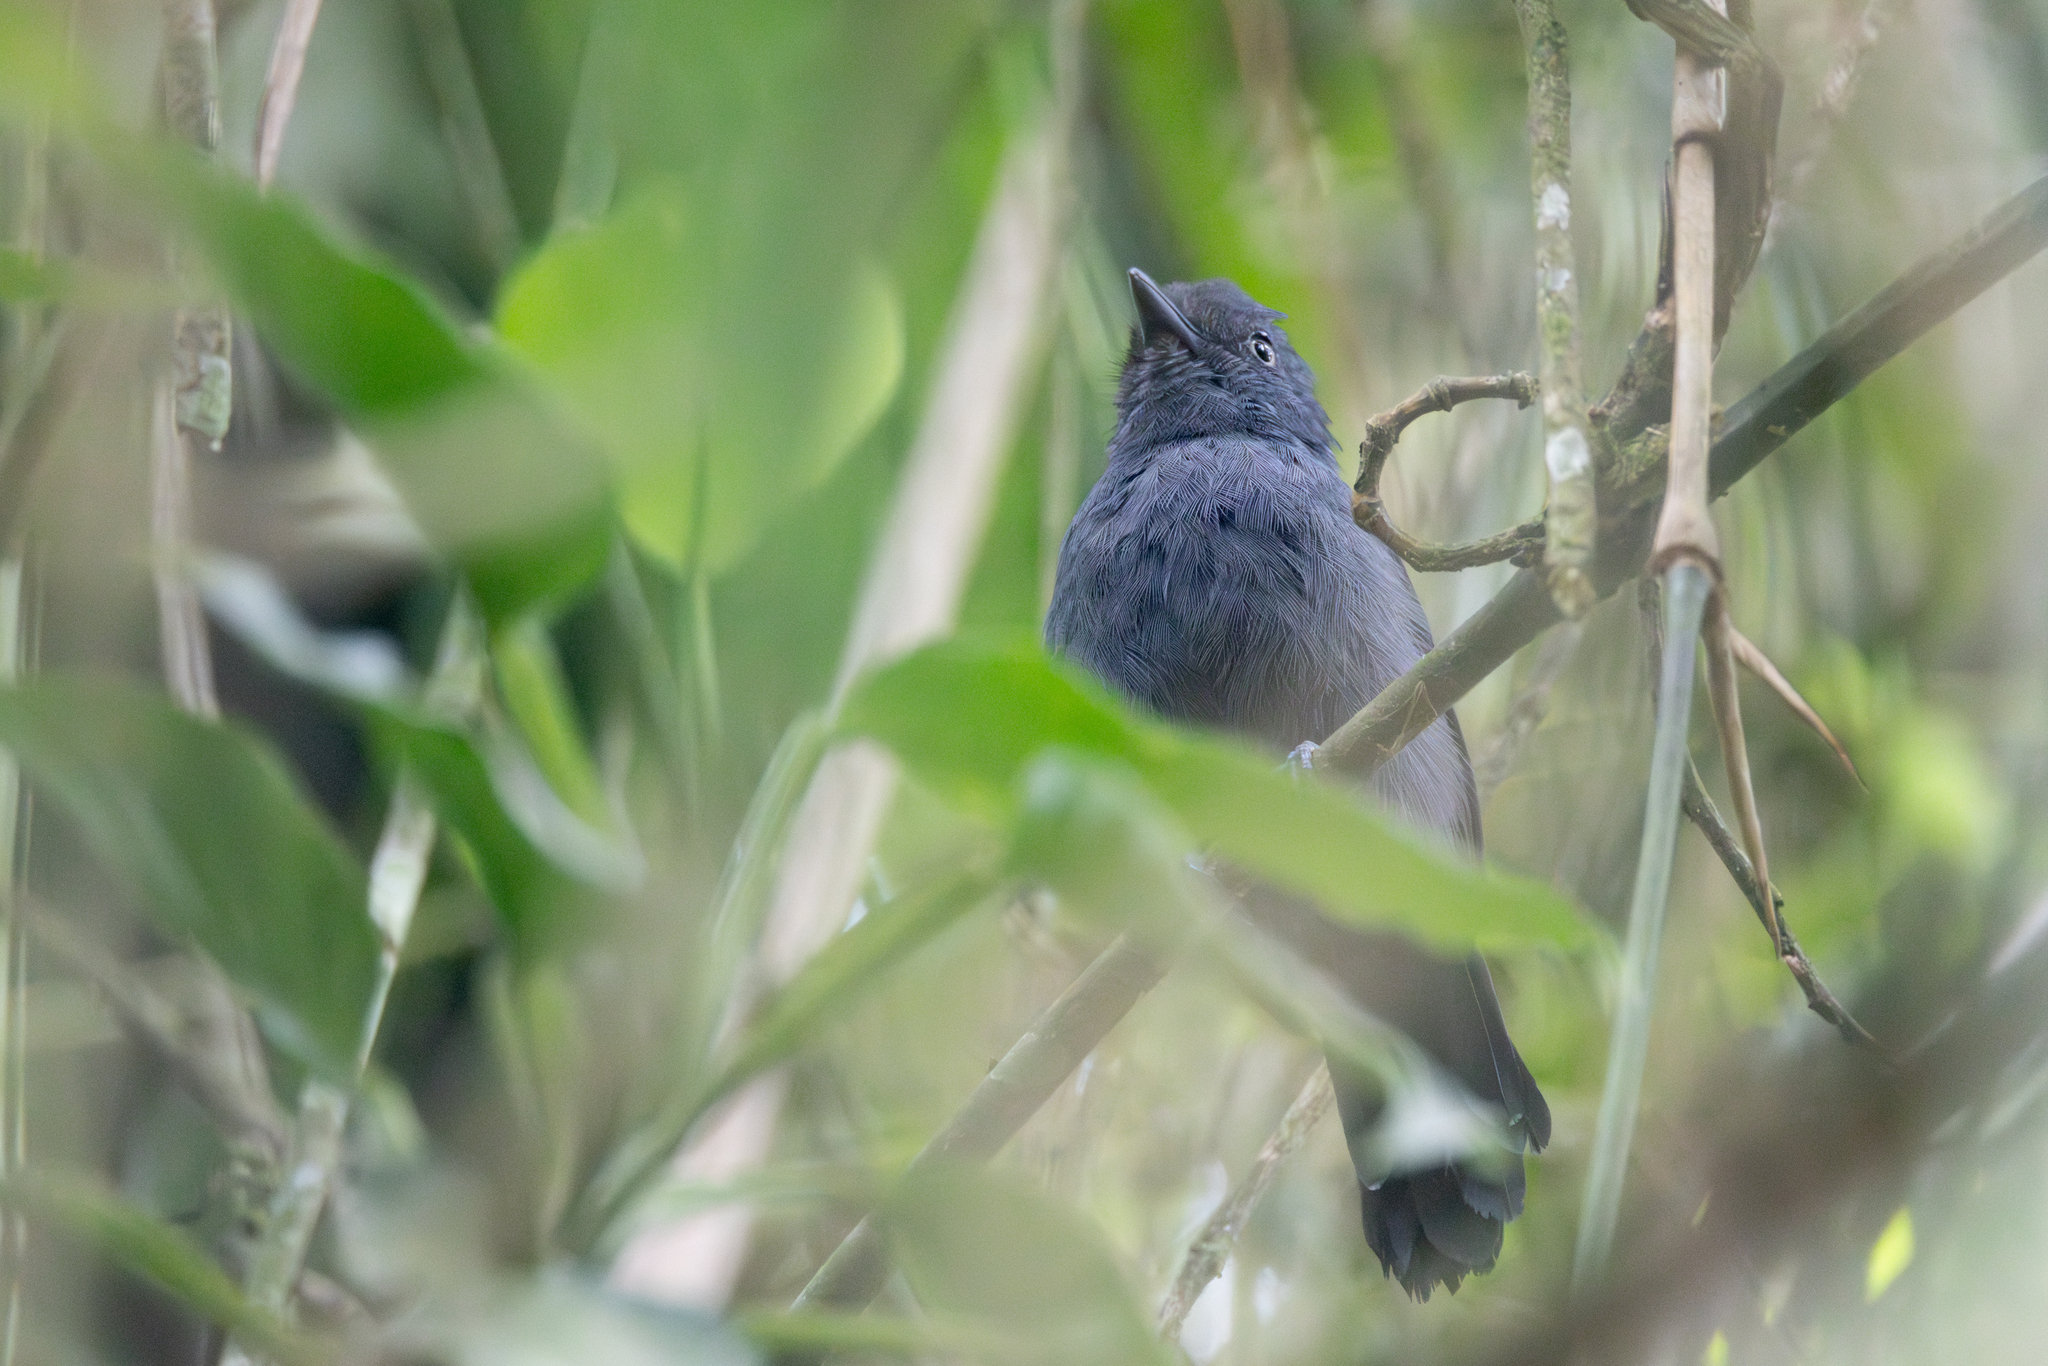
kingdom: Animalia
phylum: Chordata
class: Aves
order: Passeriformes
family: Thamnophilidae
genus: Thamnophilus
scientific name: Thamnophilus unicolor
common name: Uniform antshrike
